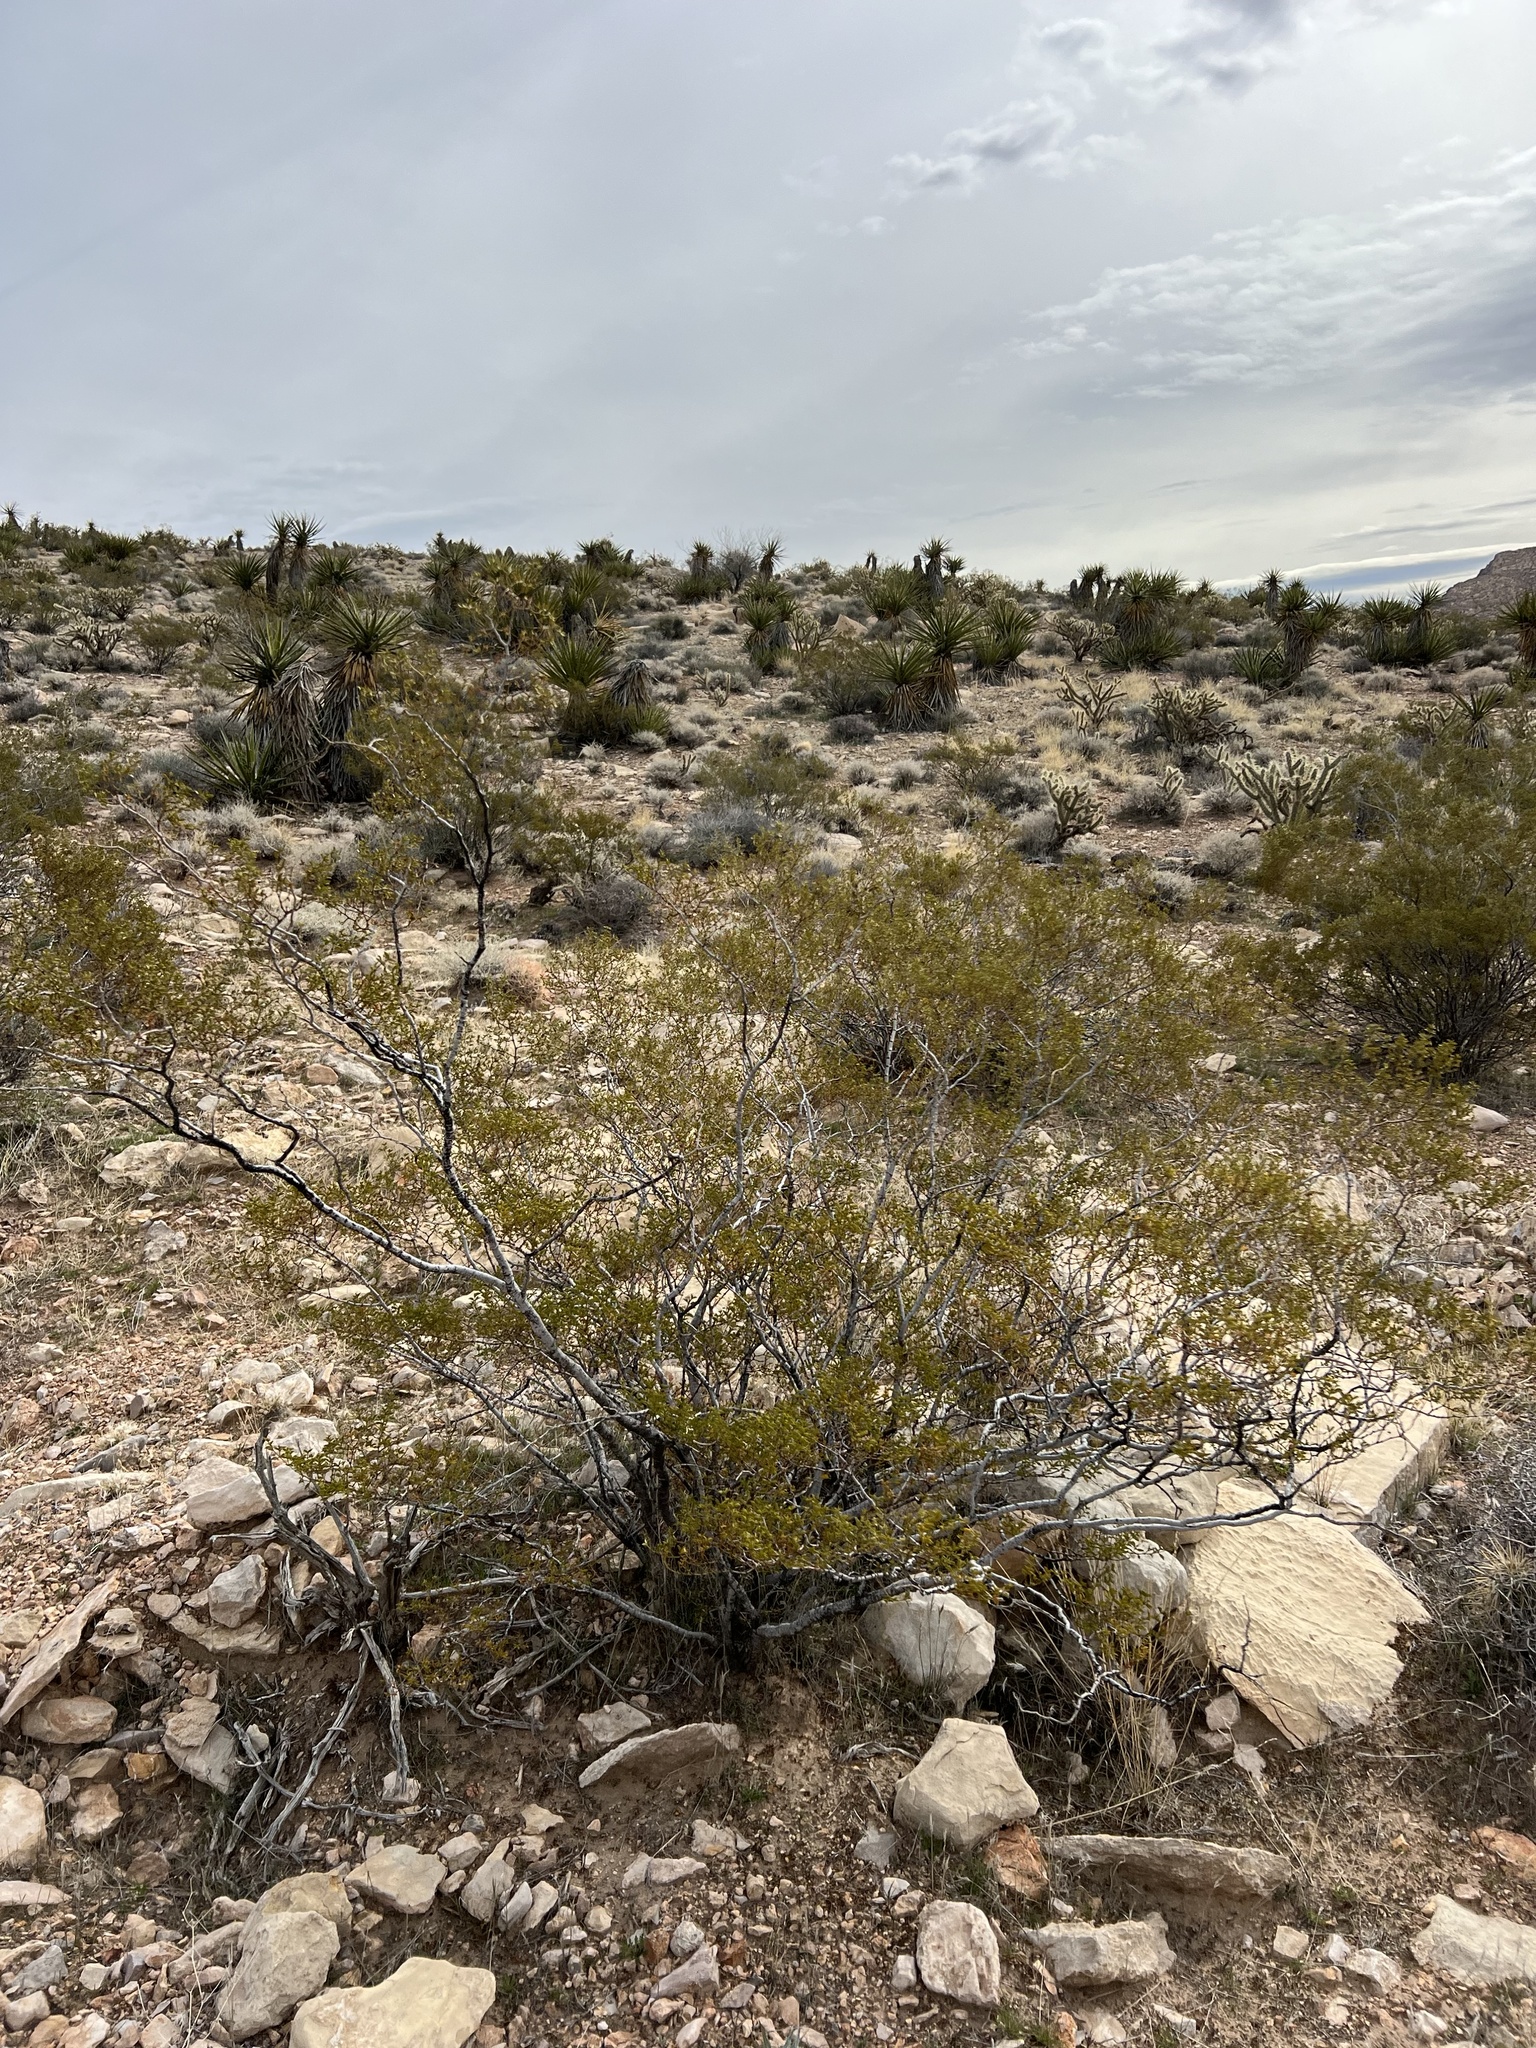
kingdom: Plantae
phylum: Tracheophyta
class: Magnoliopsida
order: Zygophyllales
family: Zygophyllaceae
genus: Larrea
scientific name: Larrea tridentata
